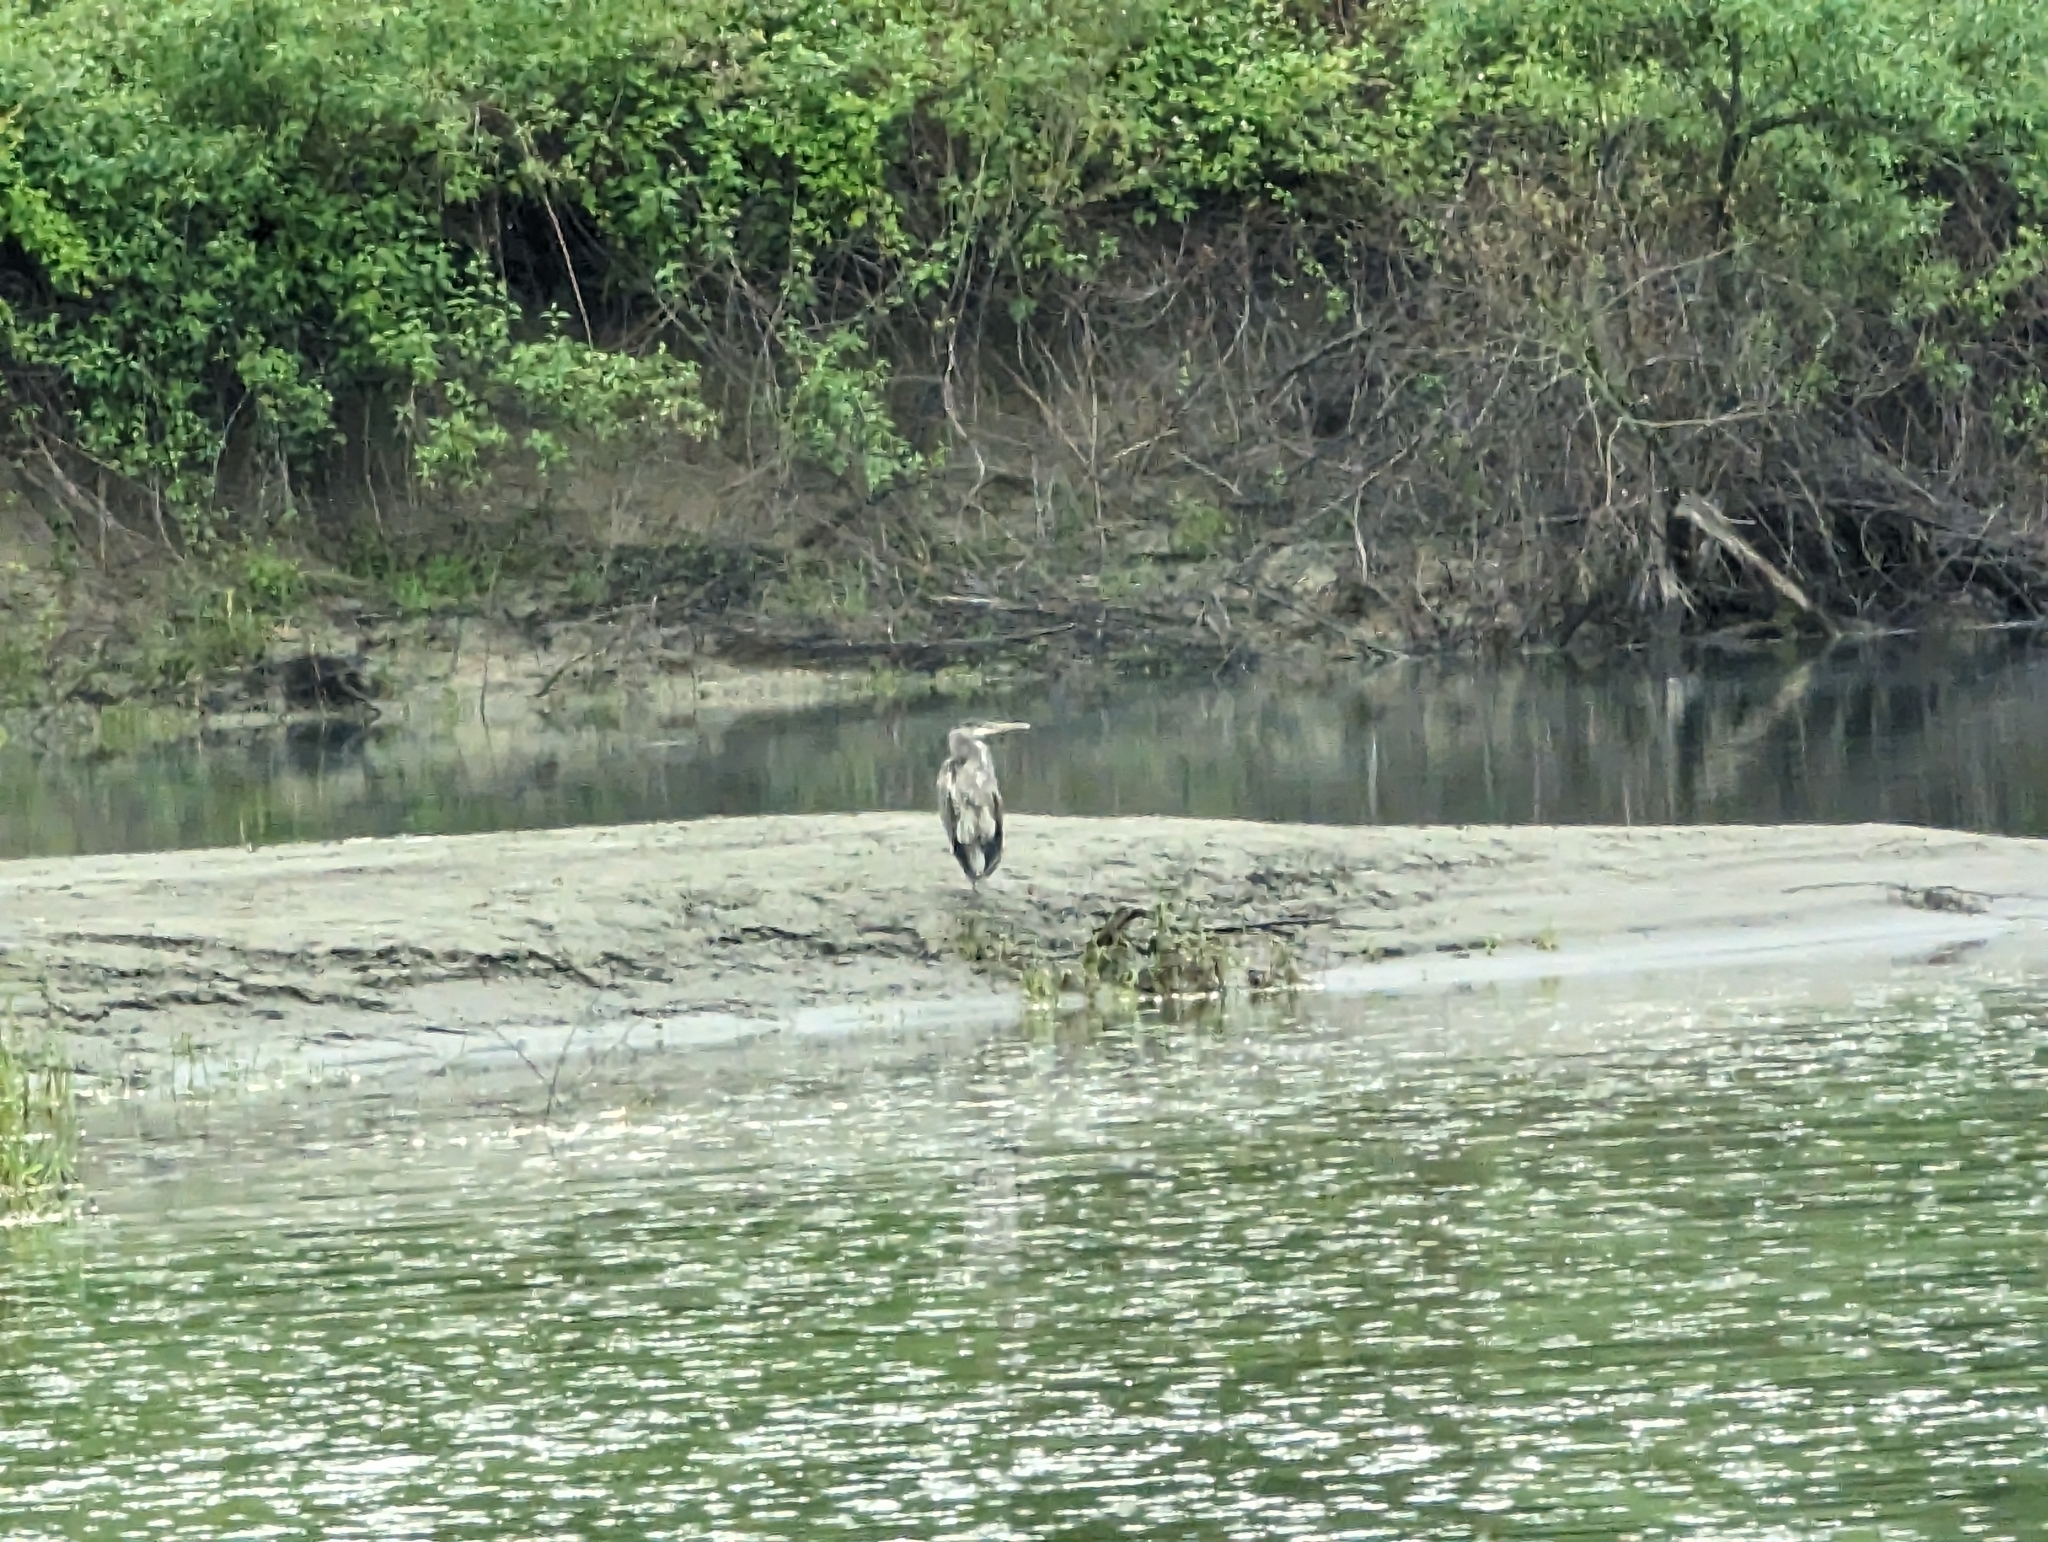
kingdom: Animalia
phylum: Chordata
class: Aves
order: Pelecaniformes
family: Ardeidae
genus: Ardea
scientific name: Ardea herodias
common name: Great blue heron
